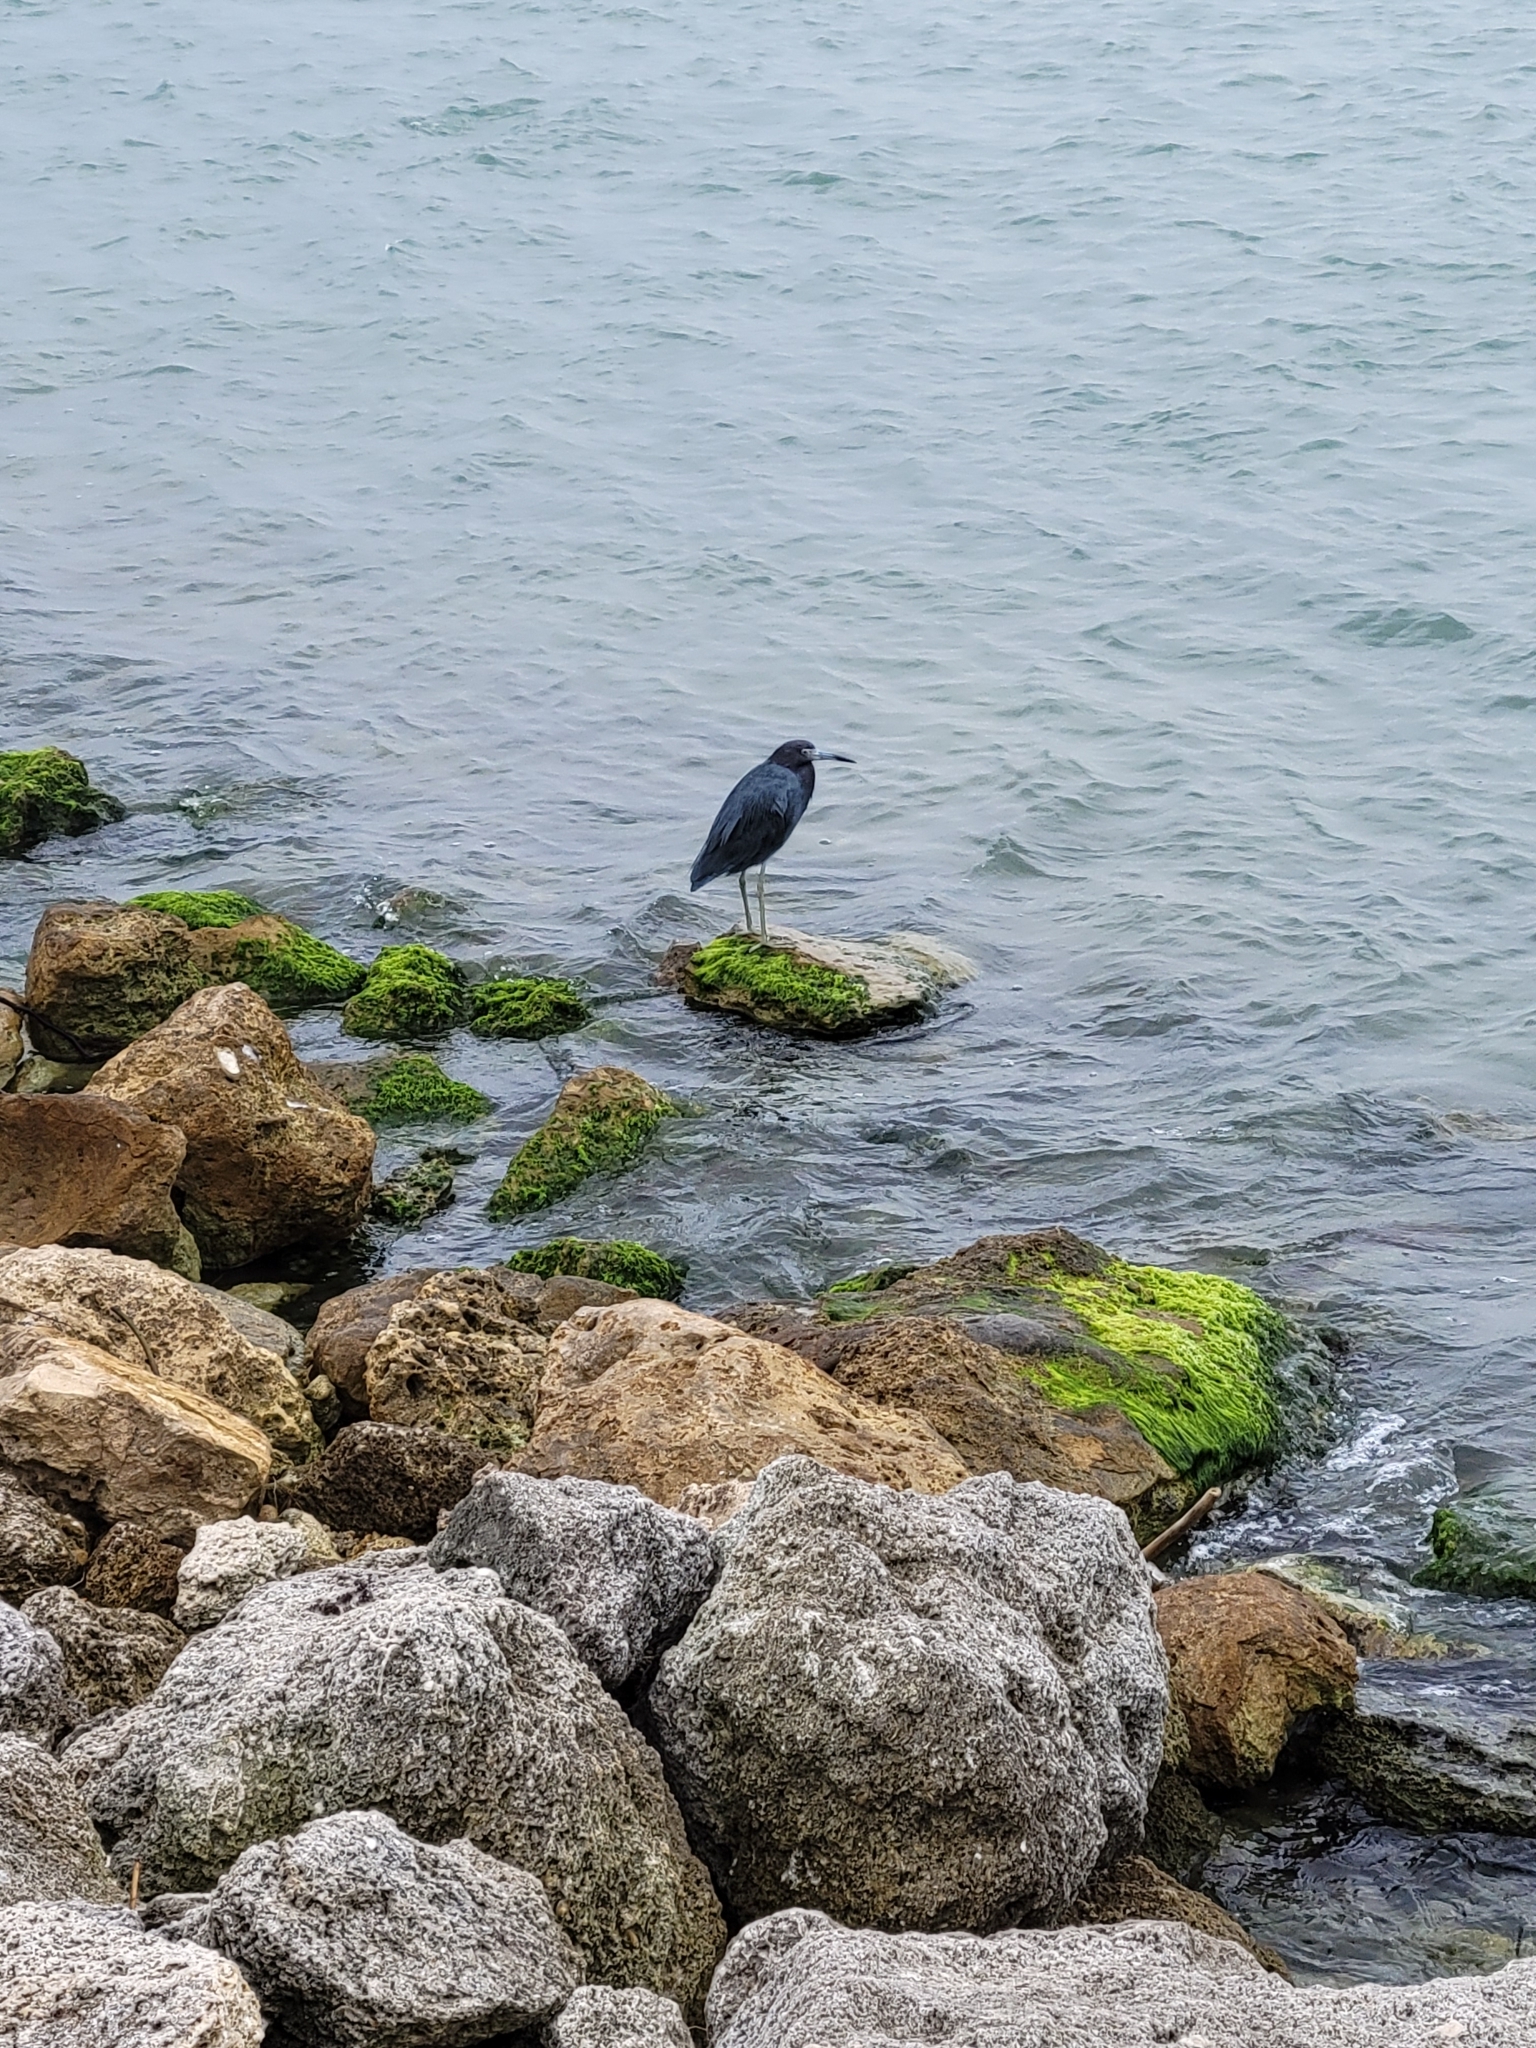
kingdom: Animalia
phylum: Chordata
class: Aves
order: Pelecaniformes
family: Ardeidae
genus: Egretta
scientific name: Egretta caerulea
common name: Little blue heron
